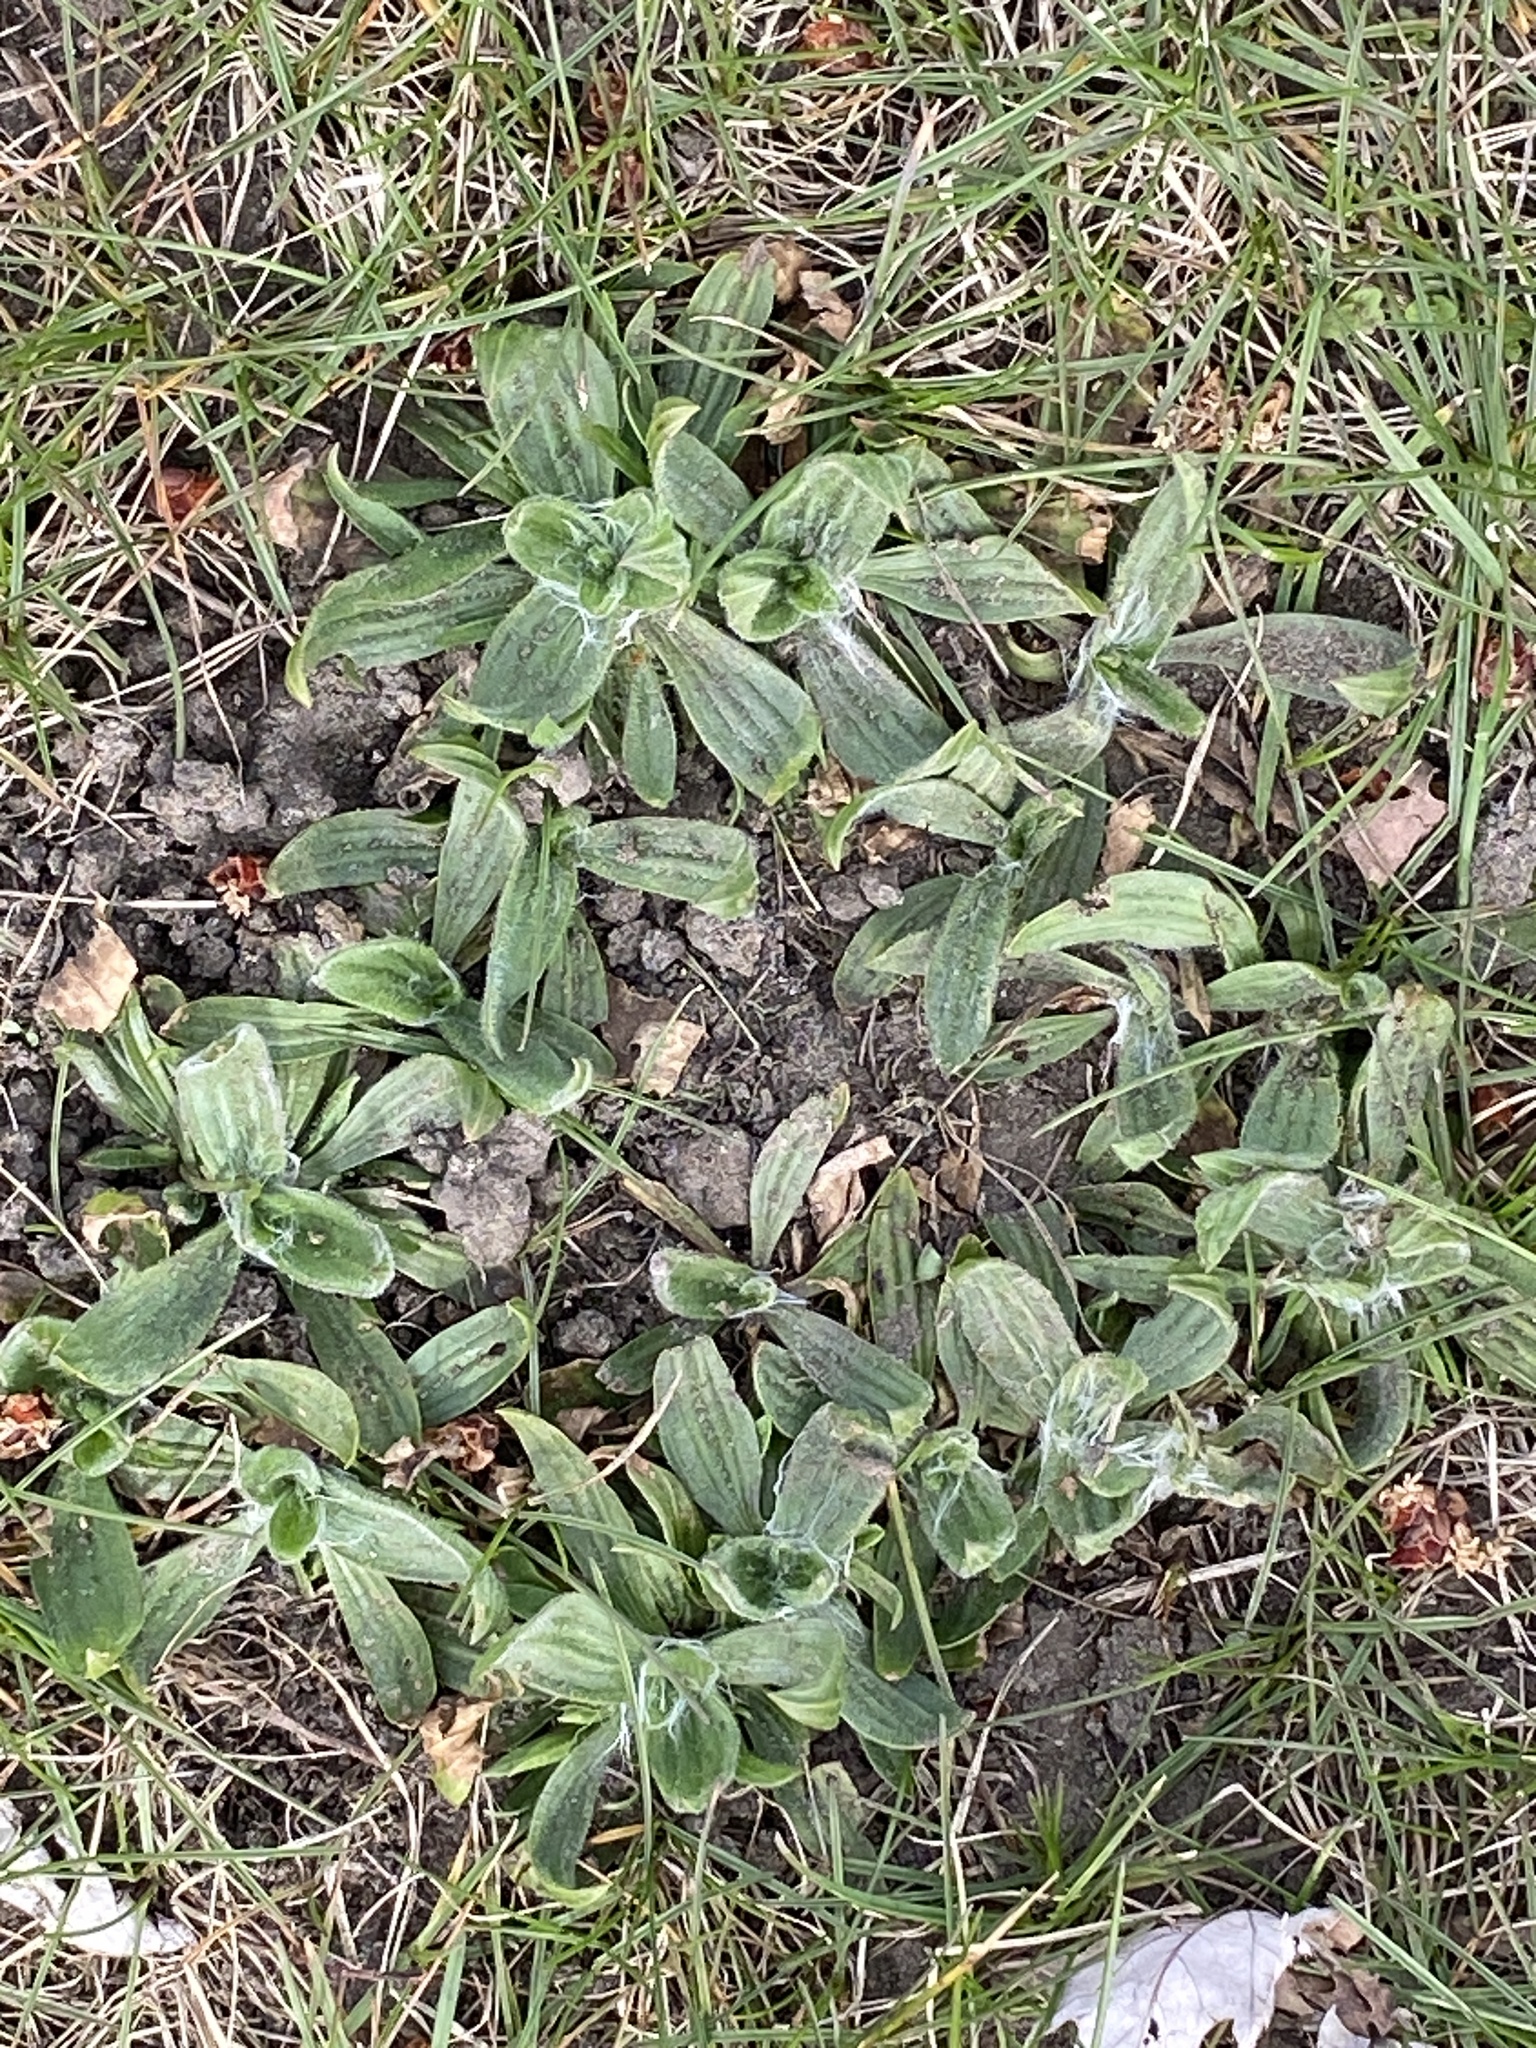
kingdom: Plantae
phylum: Tracheophyta
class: Magnoliopsida
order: Lamiales
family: Plantaginaceae
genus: Plantago
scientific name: Plantago lanceolata
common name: Ribwort plantain
